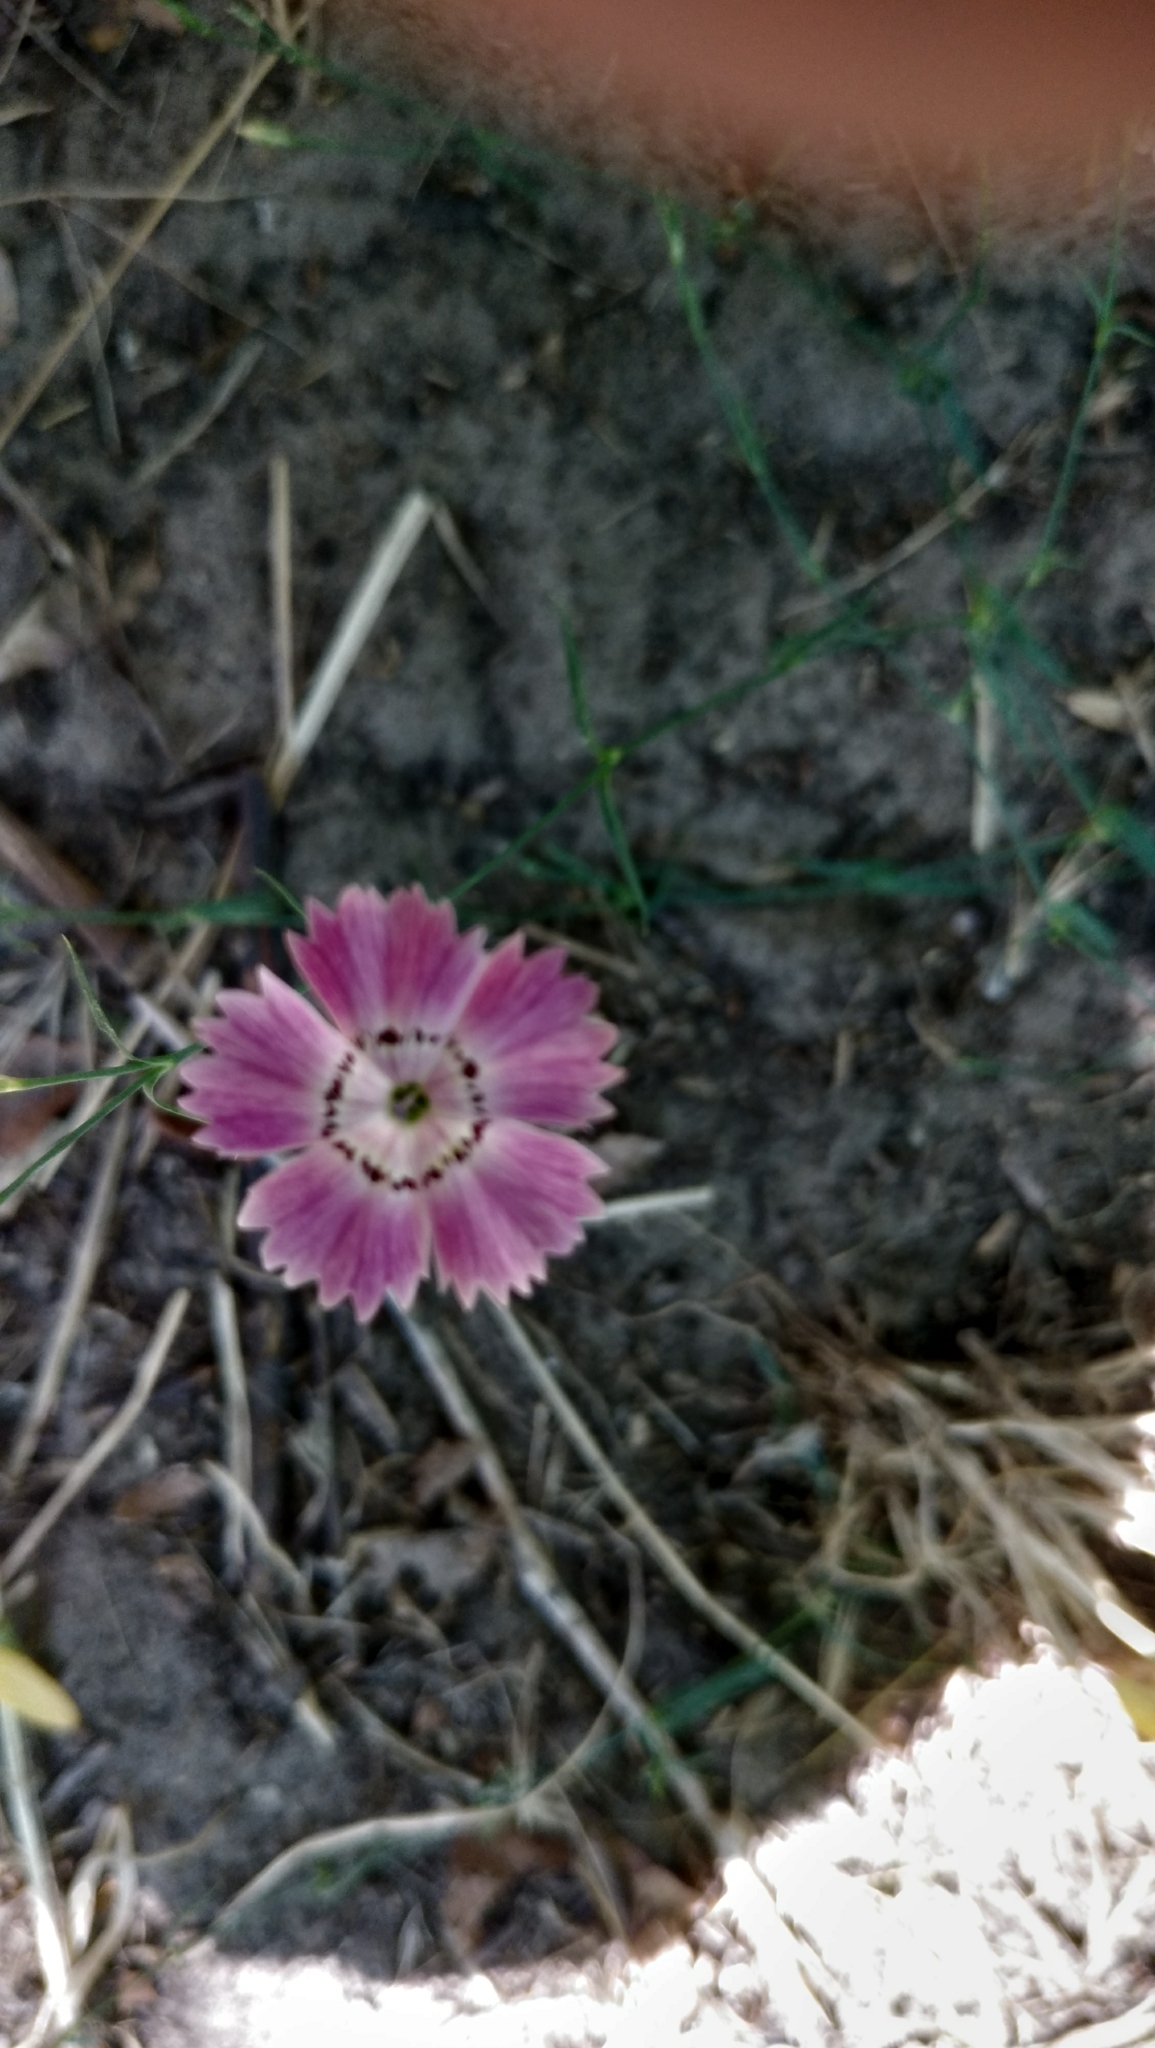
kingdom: Plantae
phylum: Tracheophyta
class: Magnoliopsida
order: Caryophyllales
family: Caryophyllaceae
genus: Dianthus
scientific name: Dianthus campestris
